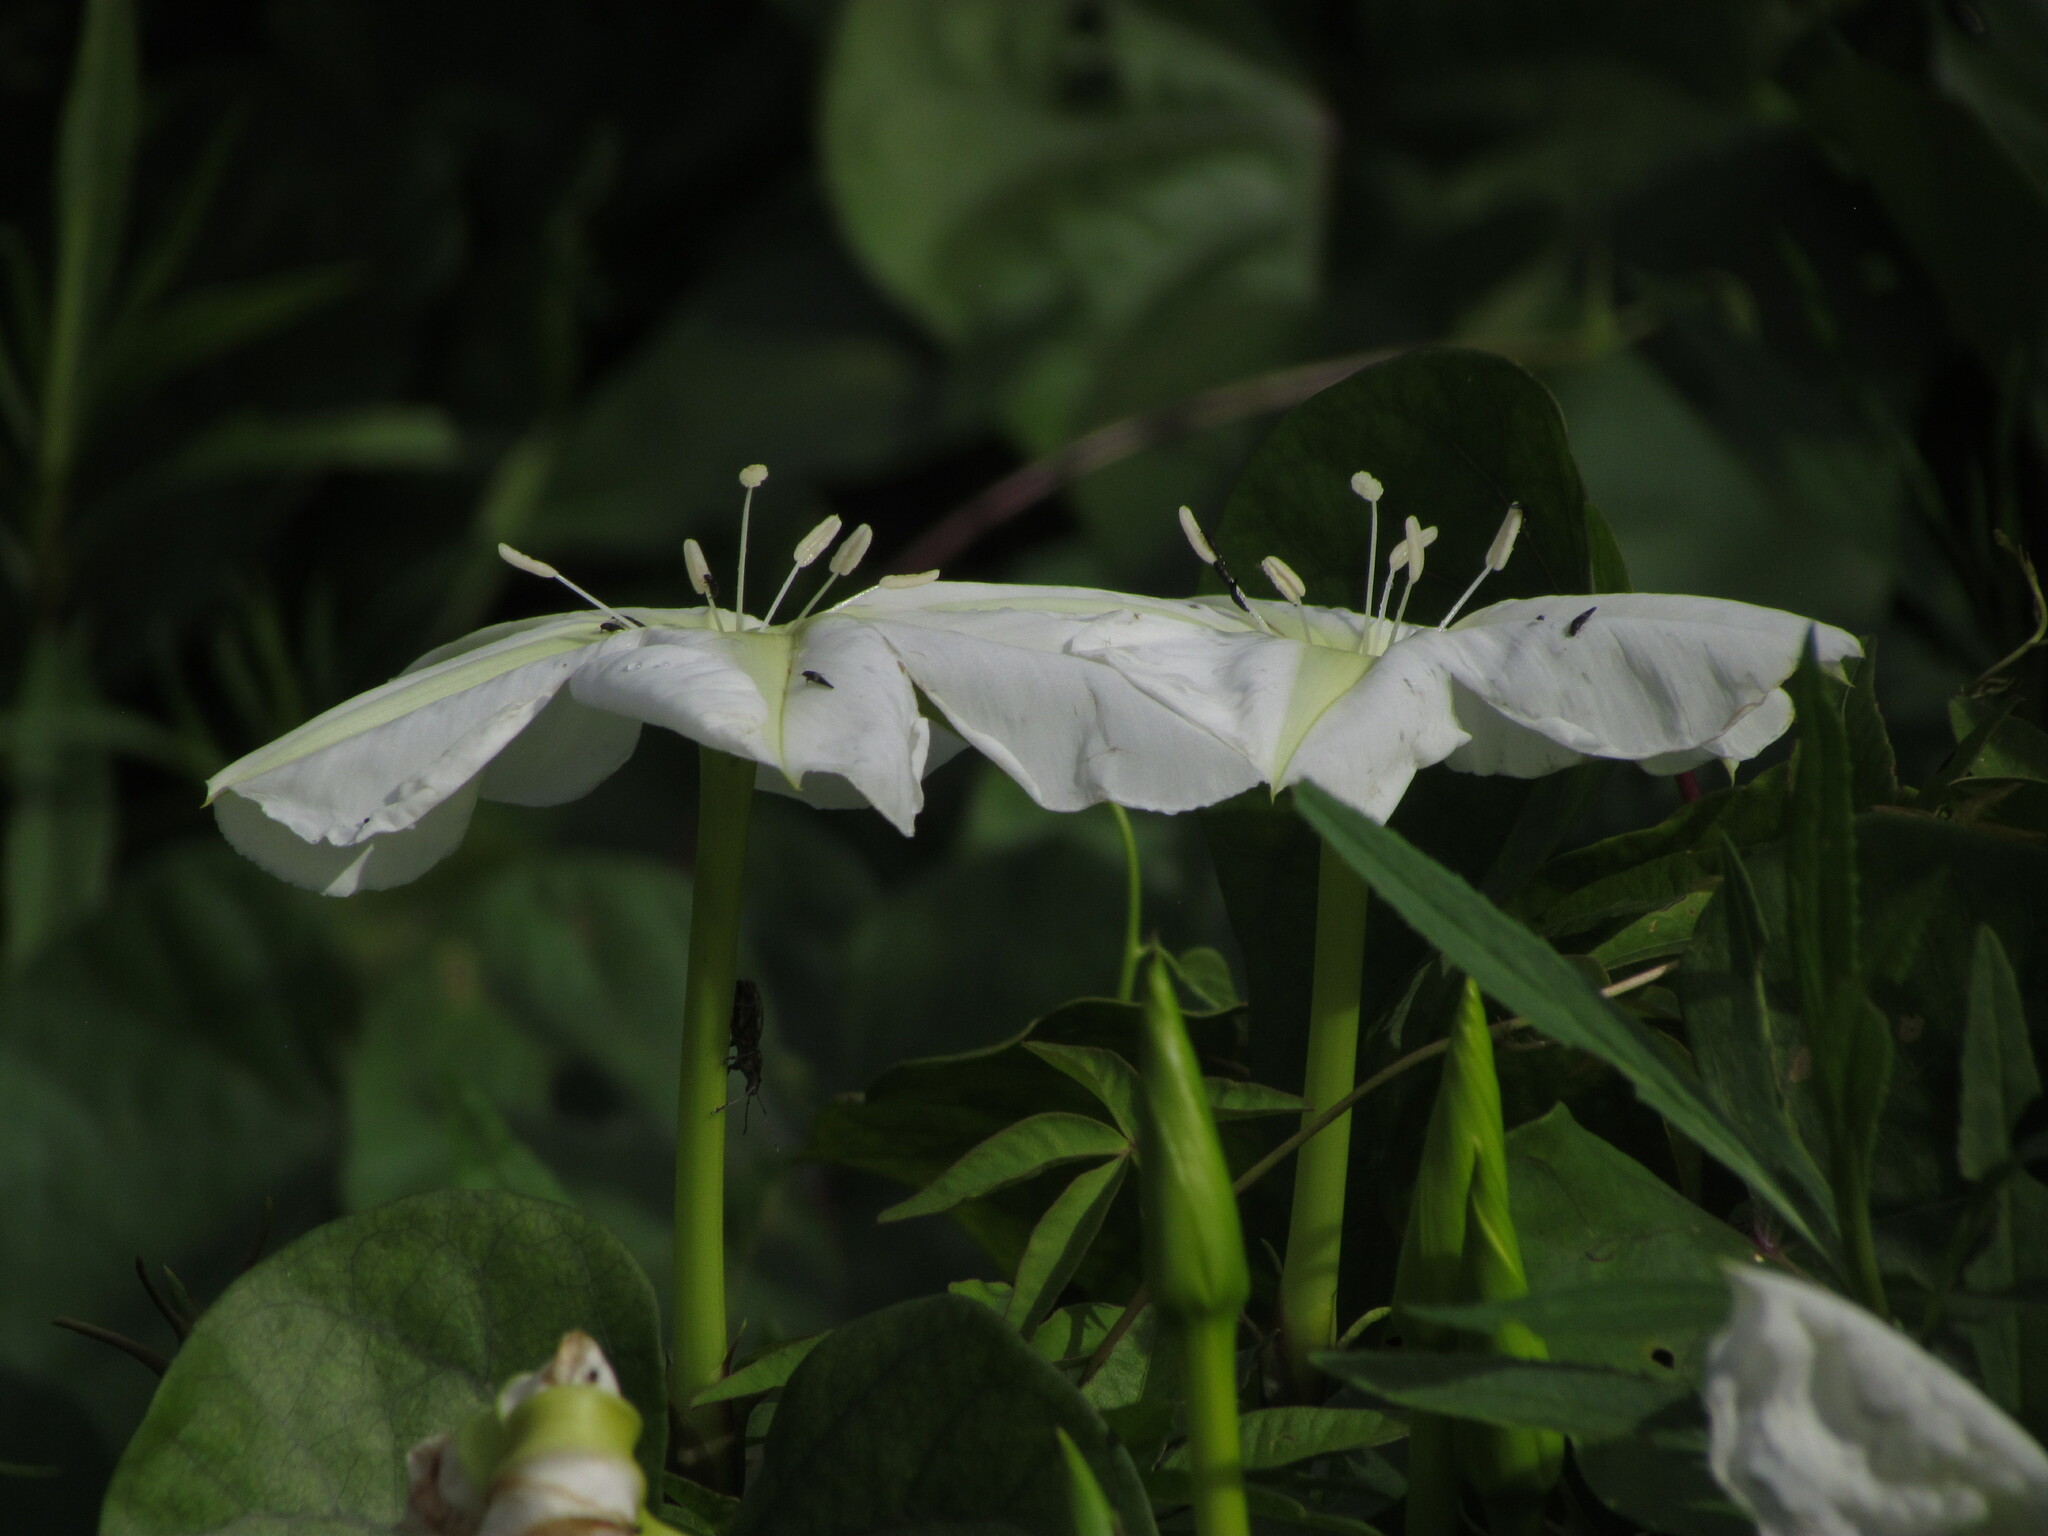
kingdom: Plantae
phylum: Tracheophyta
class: Magnoliopsida
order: Solanales
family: Convolvulaceae
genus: Ipomoea
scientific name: Ipomoea alba
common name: Moonflower
